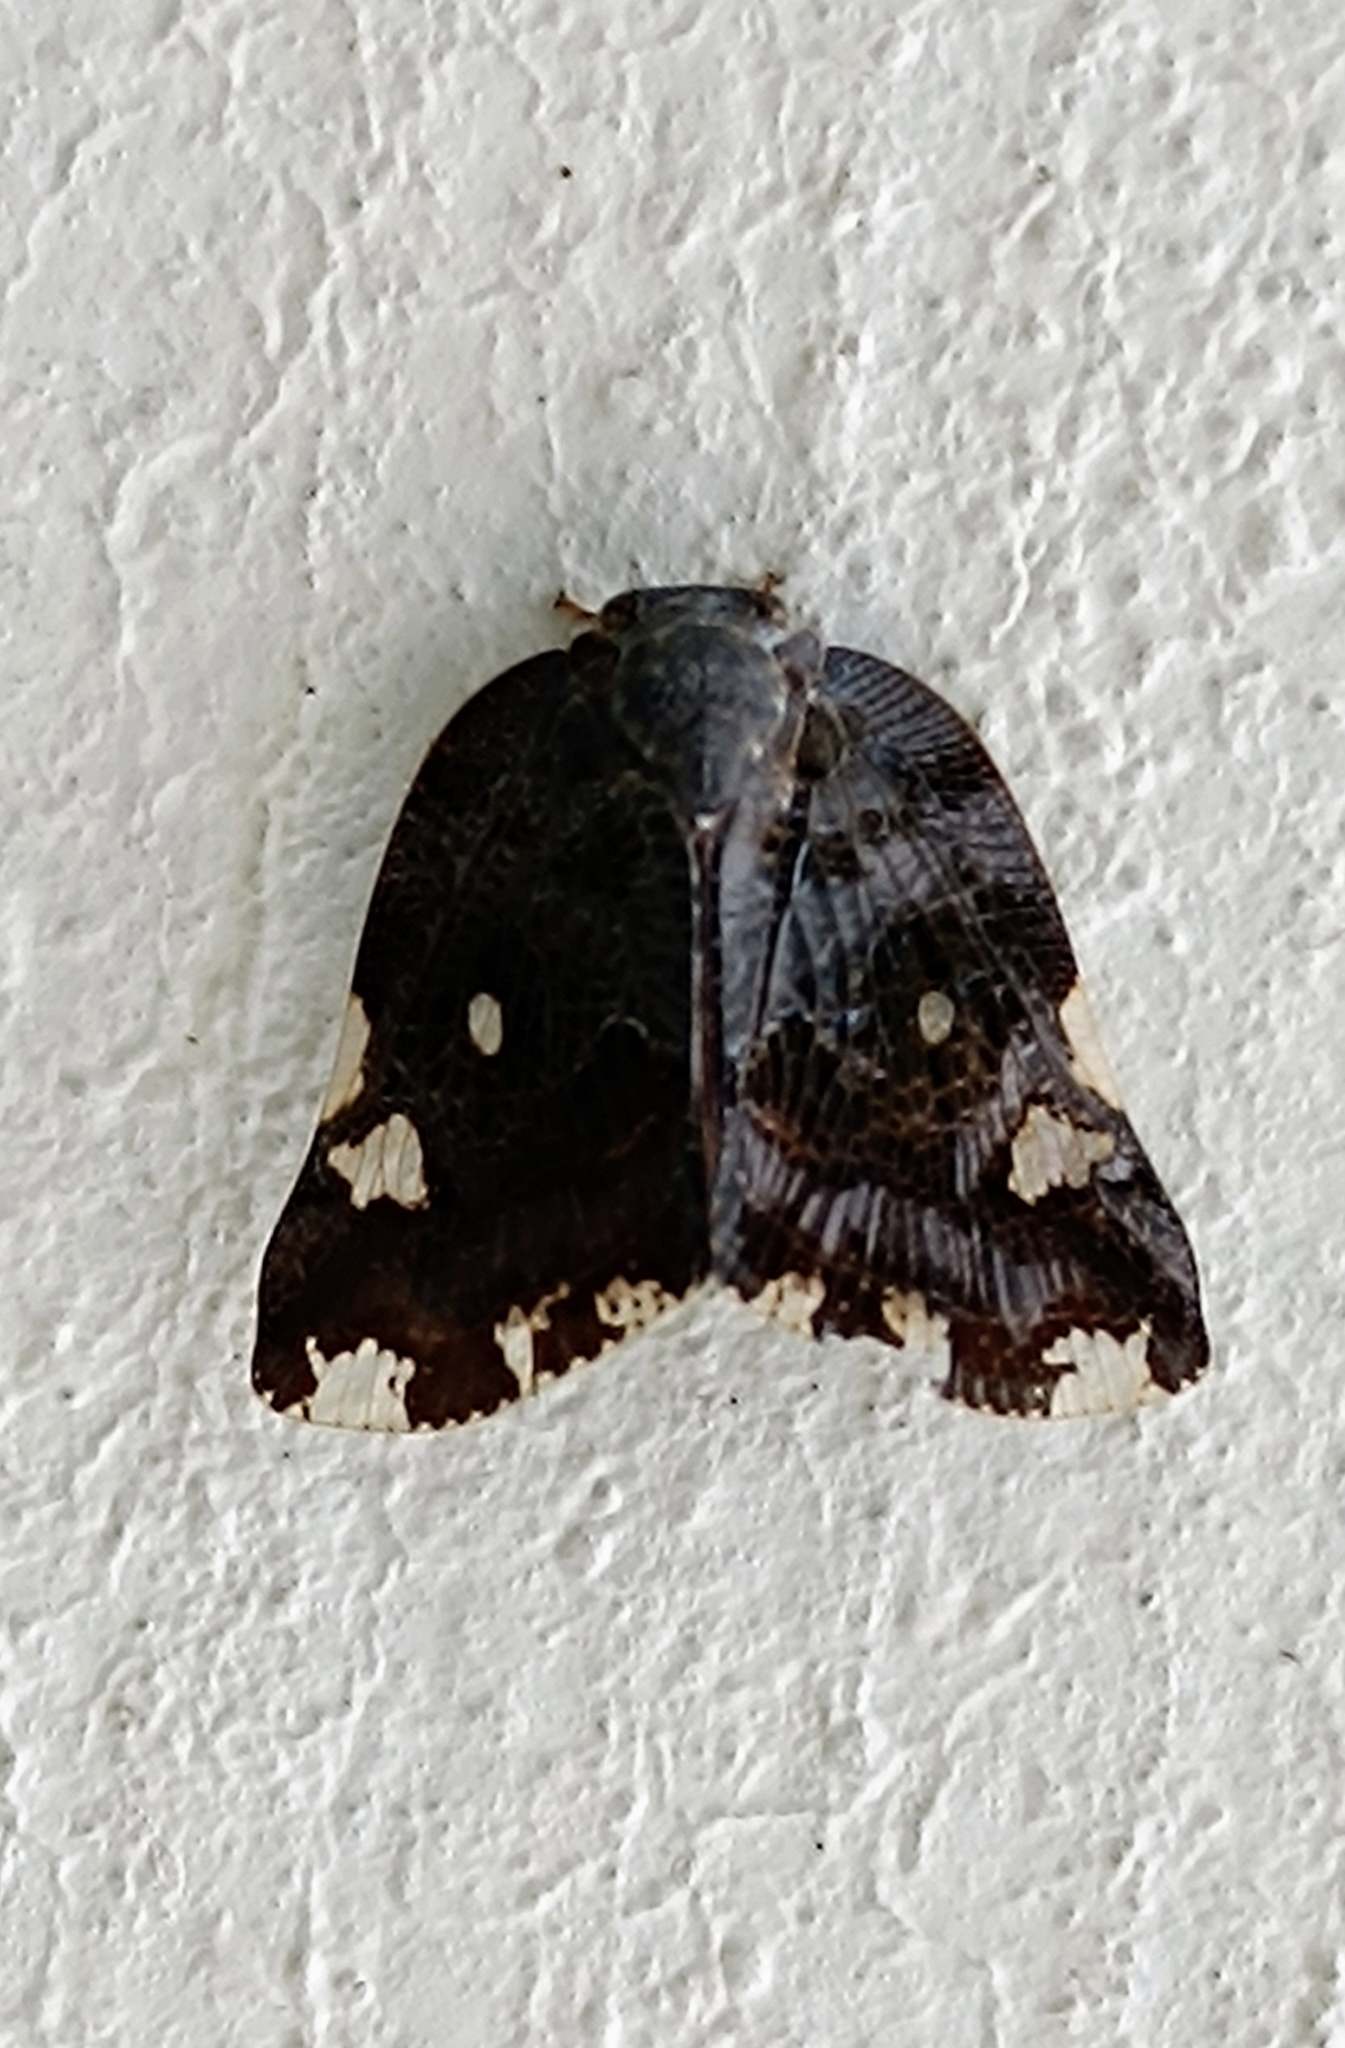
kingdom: Animalia
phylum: Arthropoda
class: Insecta
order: Hemiptera
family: Ricaniidae
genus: Ricania
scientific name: Ricania speculum
